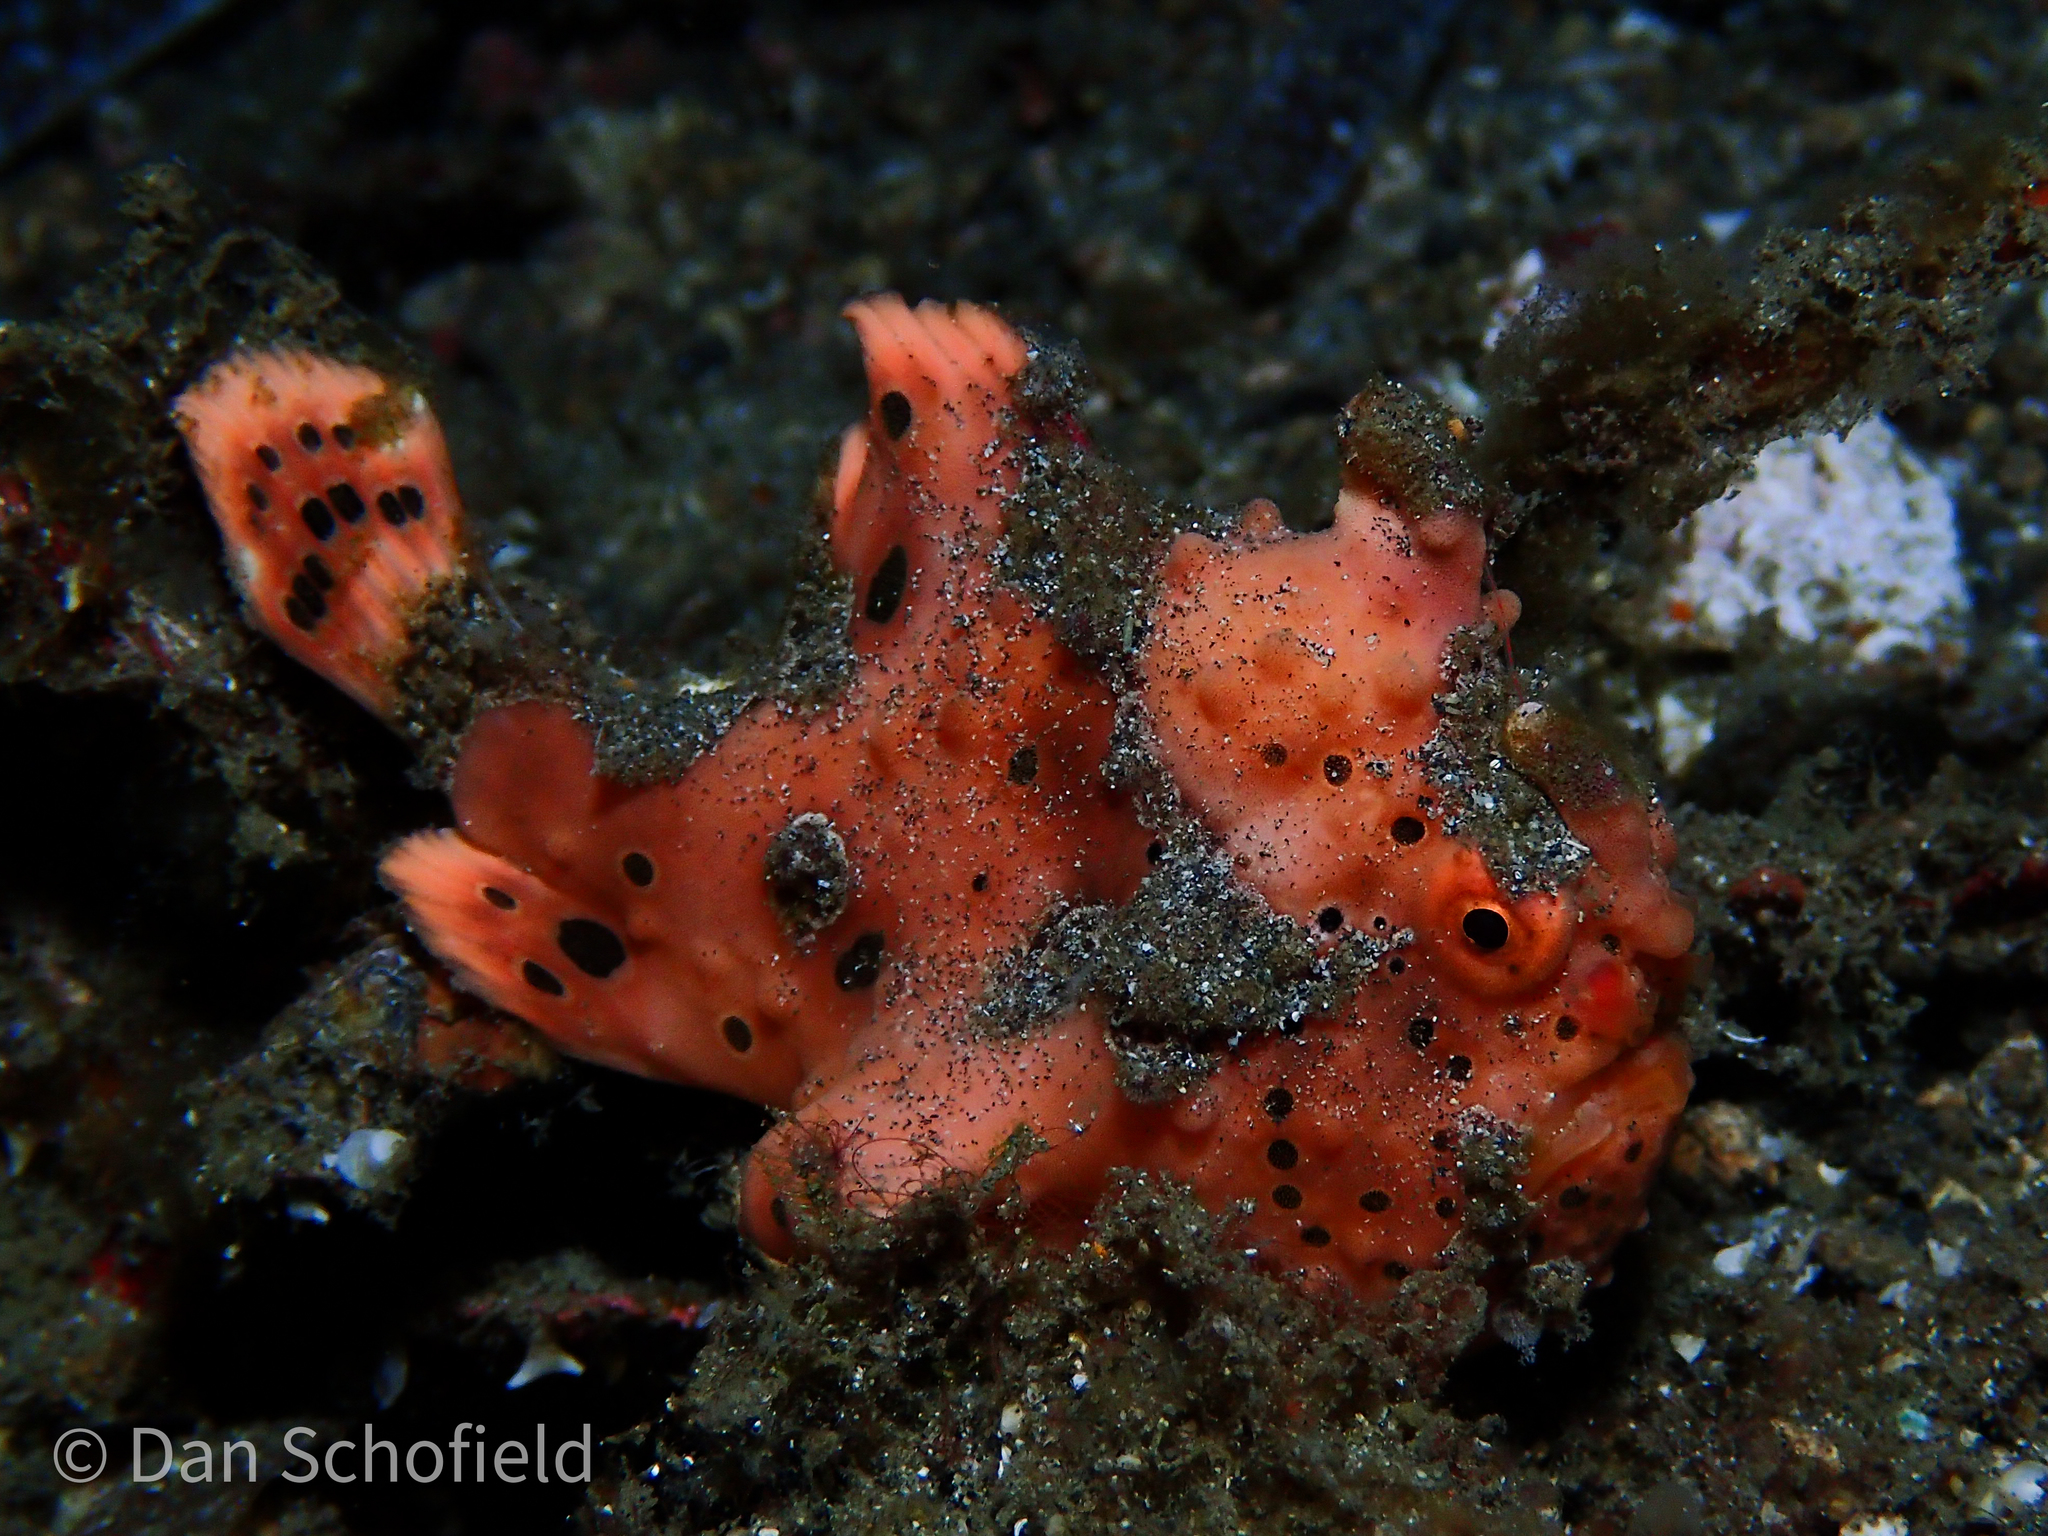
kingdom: Animalia
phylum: Chordata
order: Lophiiformes
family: Antennariidae
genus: Antennarius
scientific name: Antennarius maculatus
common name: Warty frogfish
